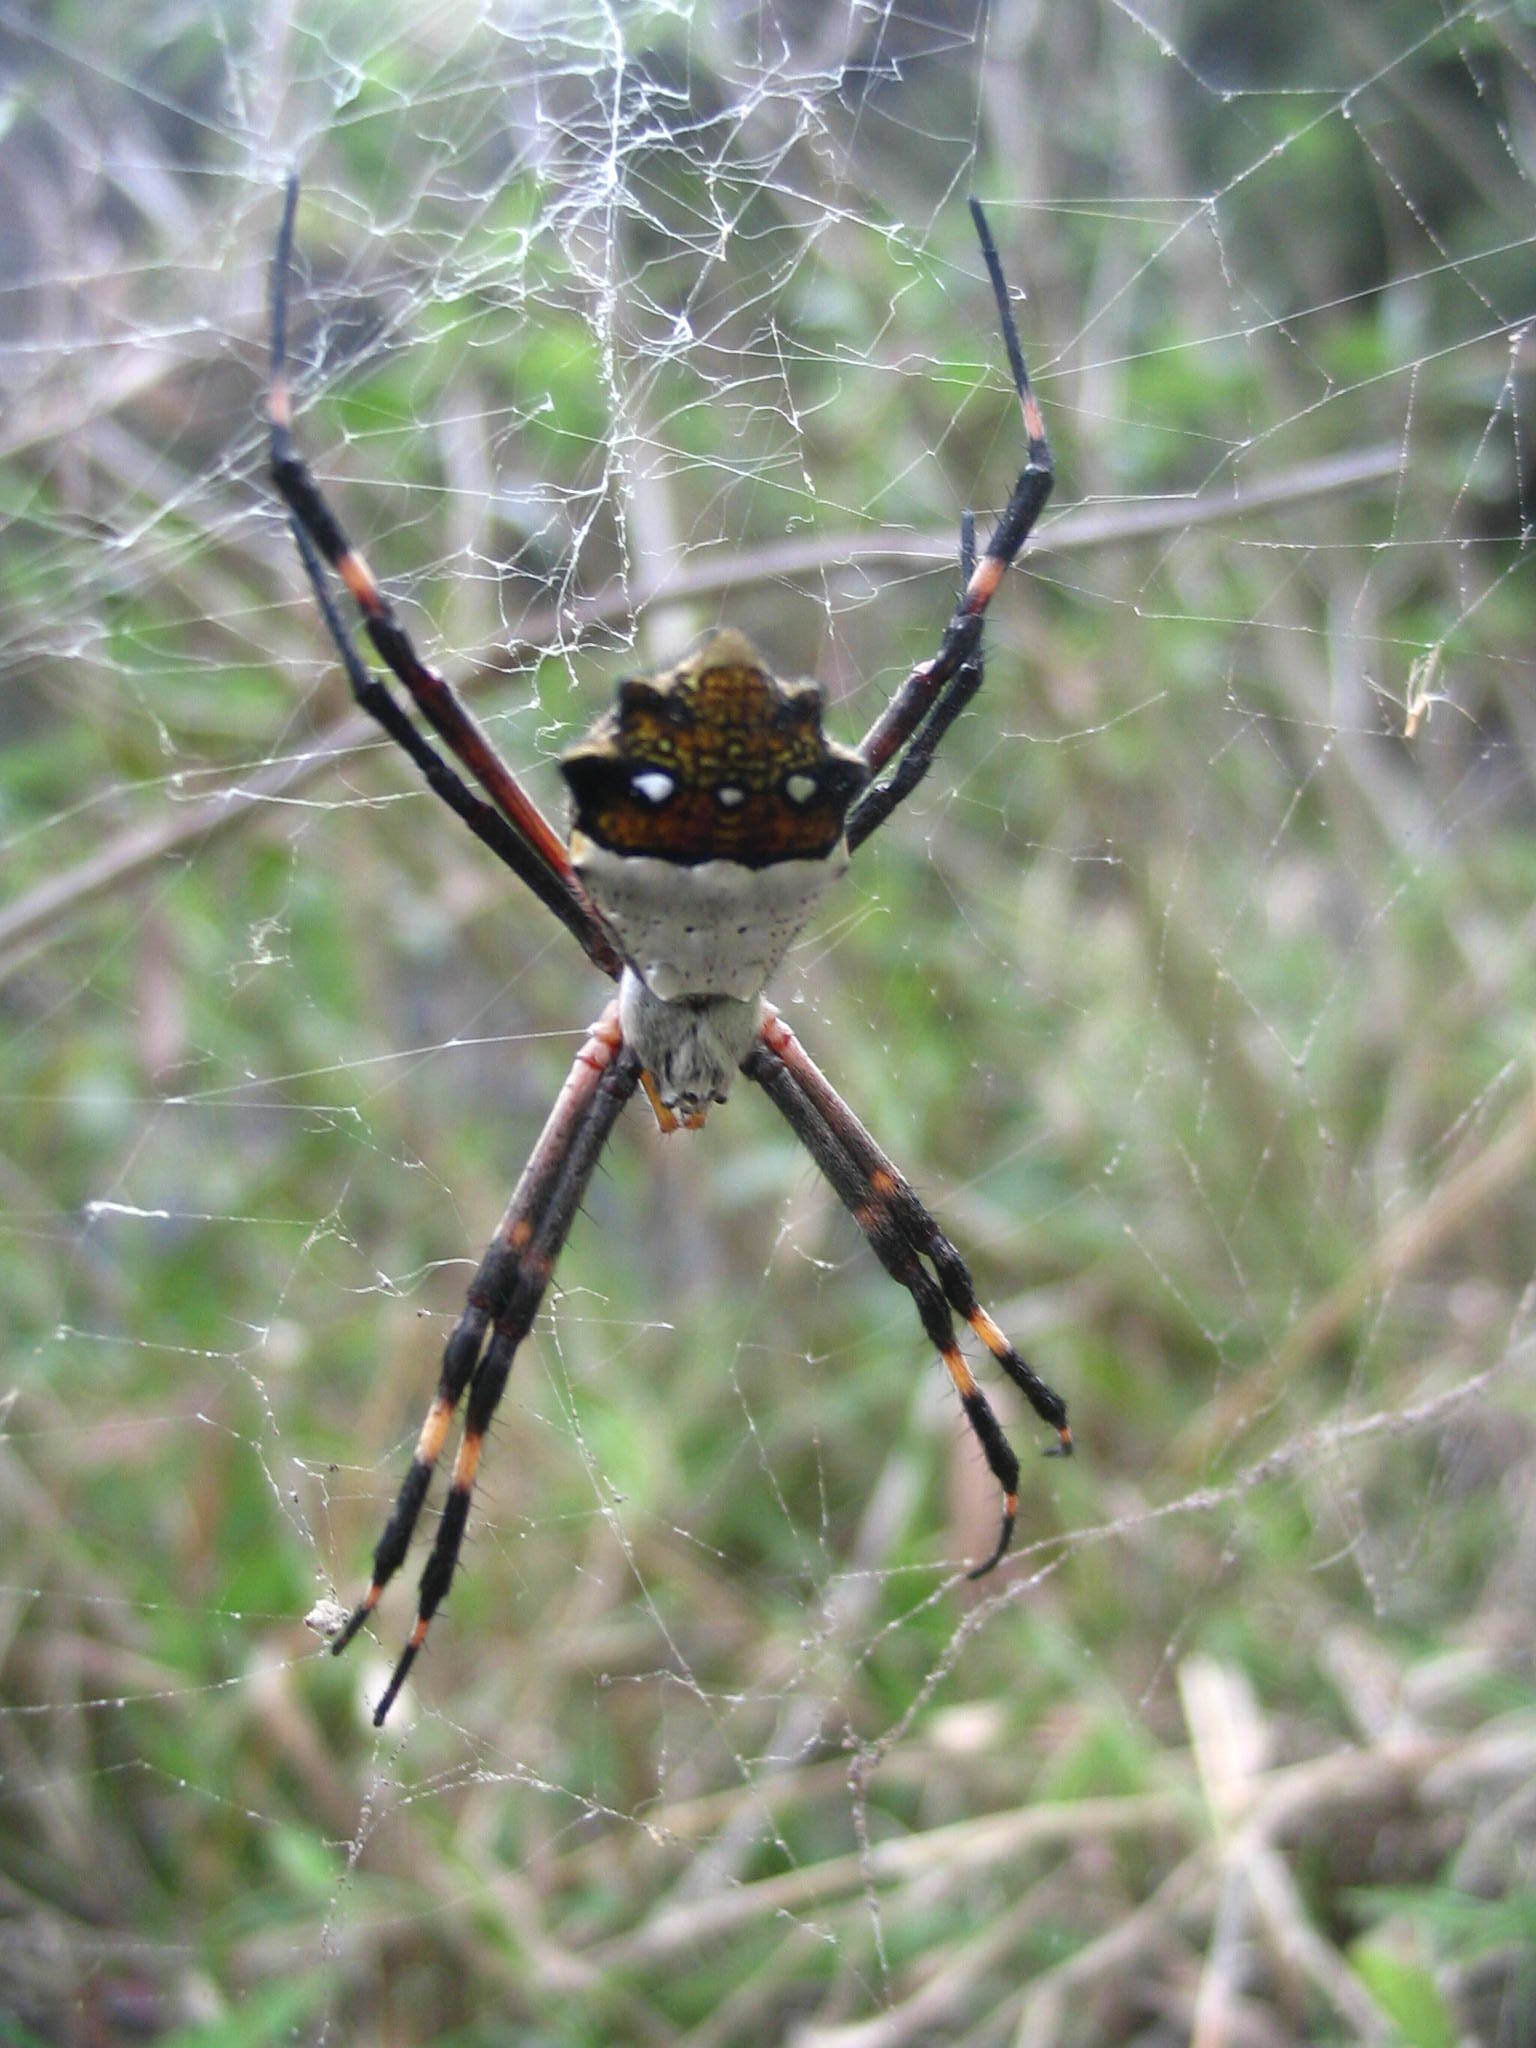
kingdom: Animalia
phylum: Arthropoda
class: Arachnida
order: Araneae
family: Araneidae
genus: Argiope
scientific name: Argiope argentata
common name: Orb weavers
